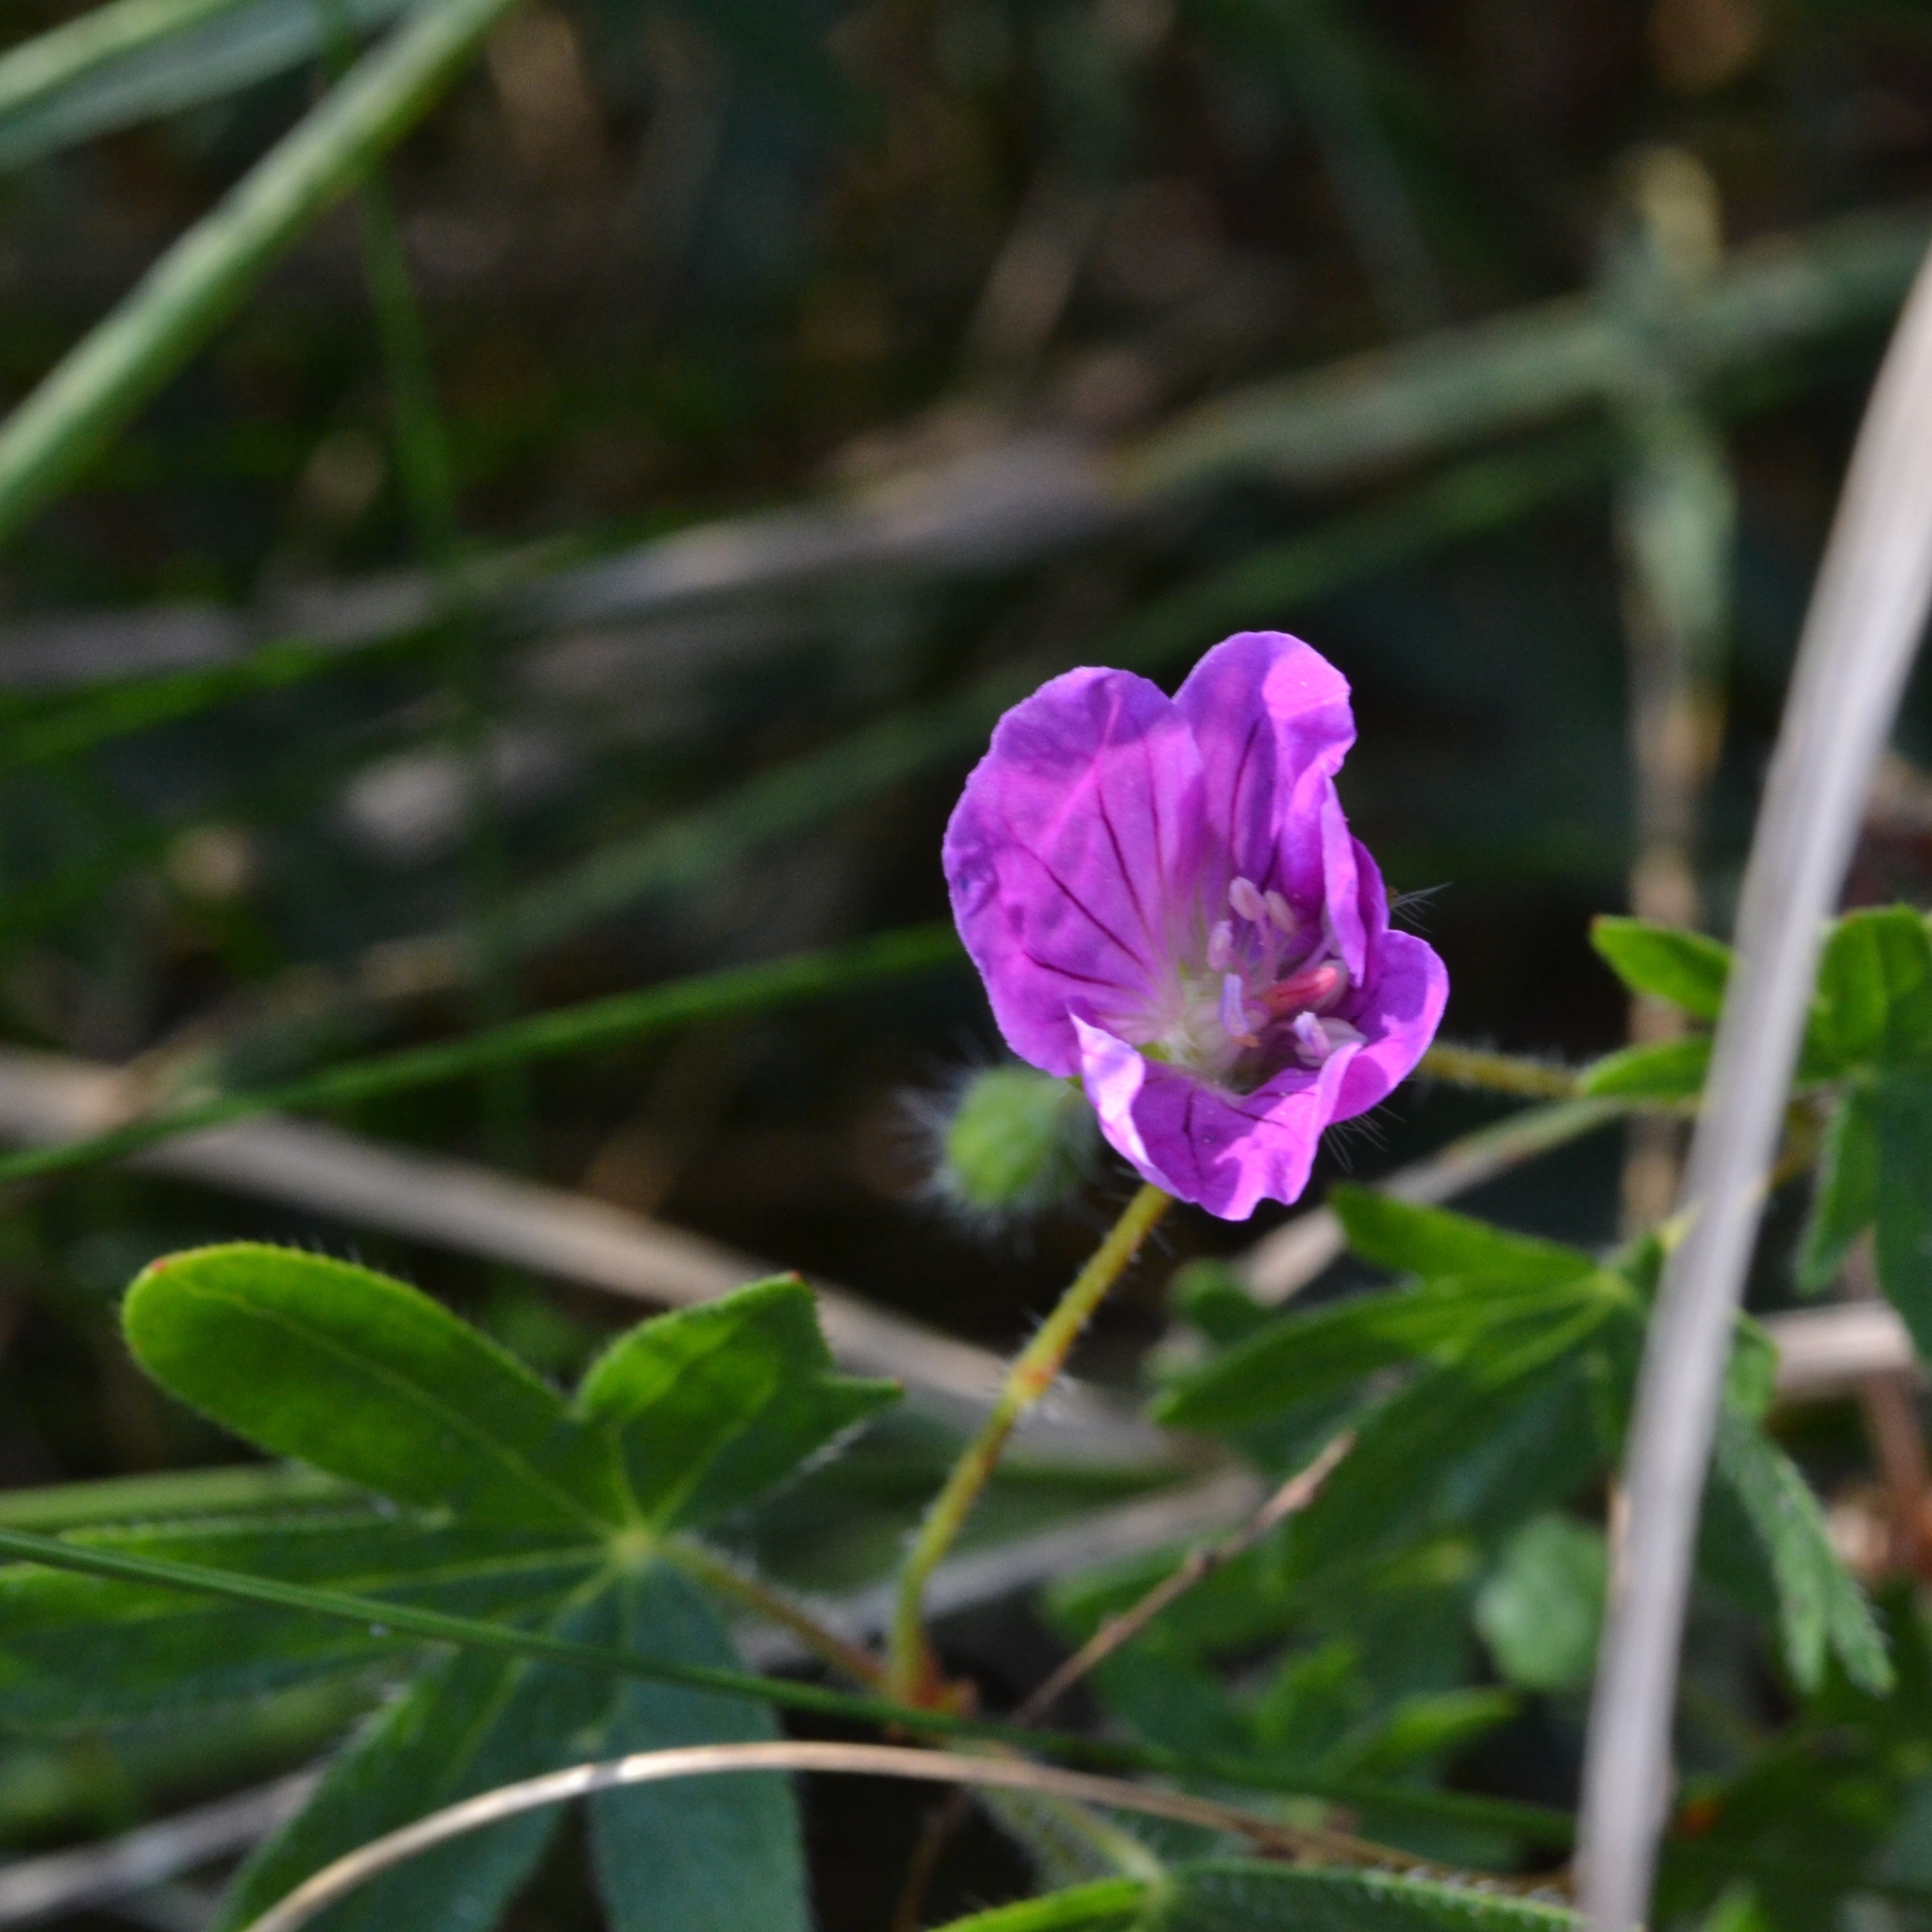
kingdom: Plantae
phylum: Tracheophyta
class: Magnoliopsida
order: Geraniales
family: Geraniaceae
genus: Geranium
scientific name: Geranium sanguineum
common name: Bloody crane's-bill
